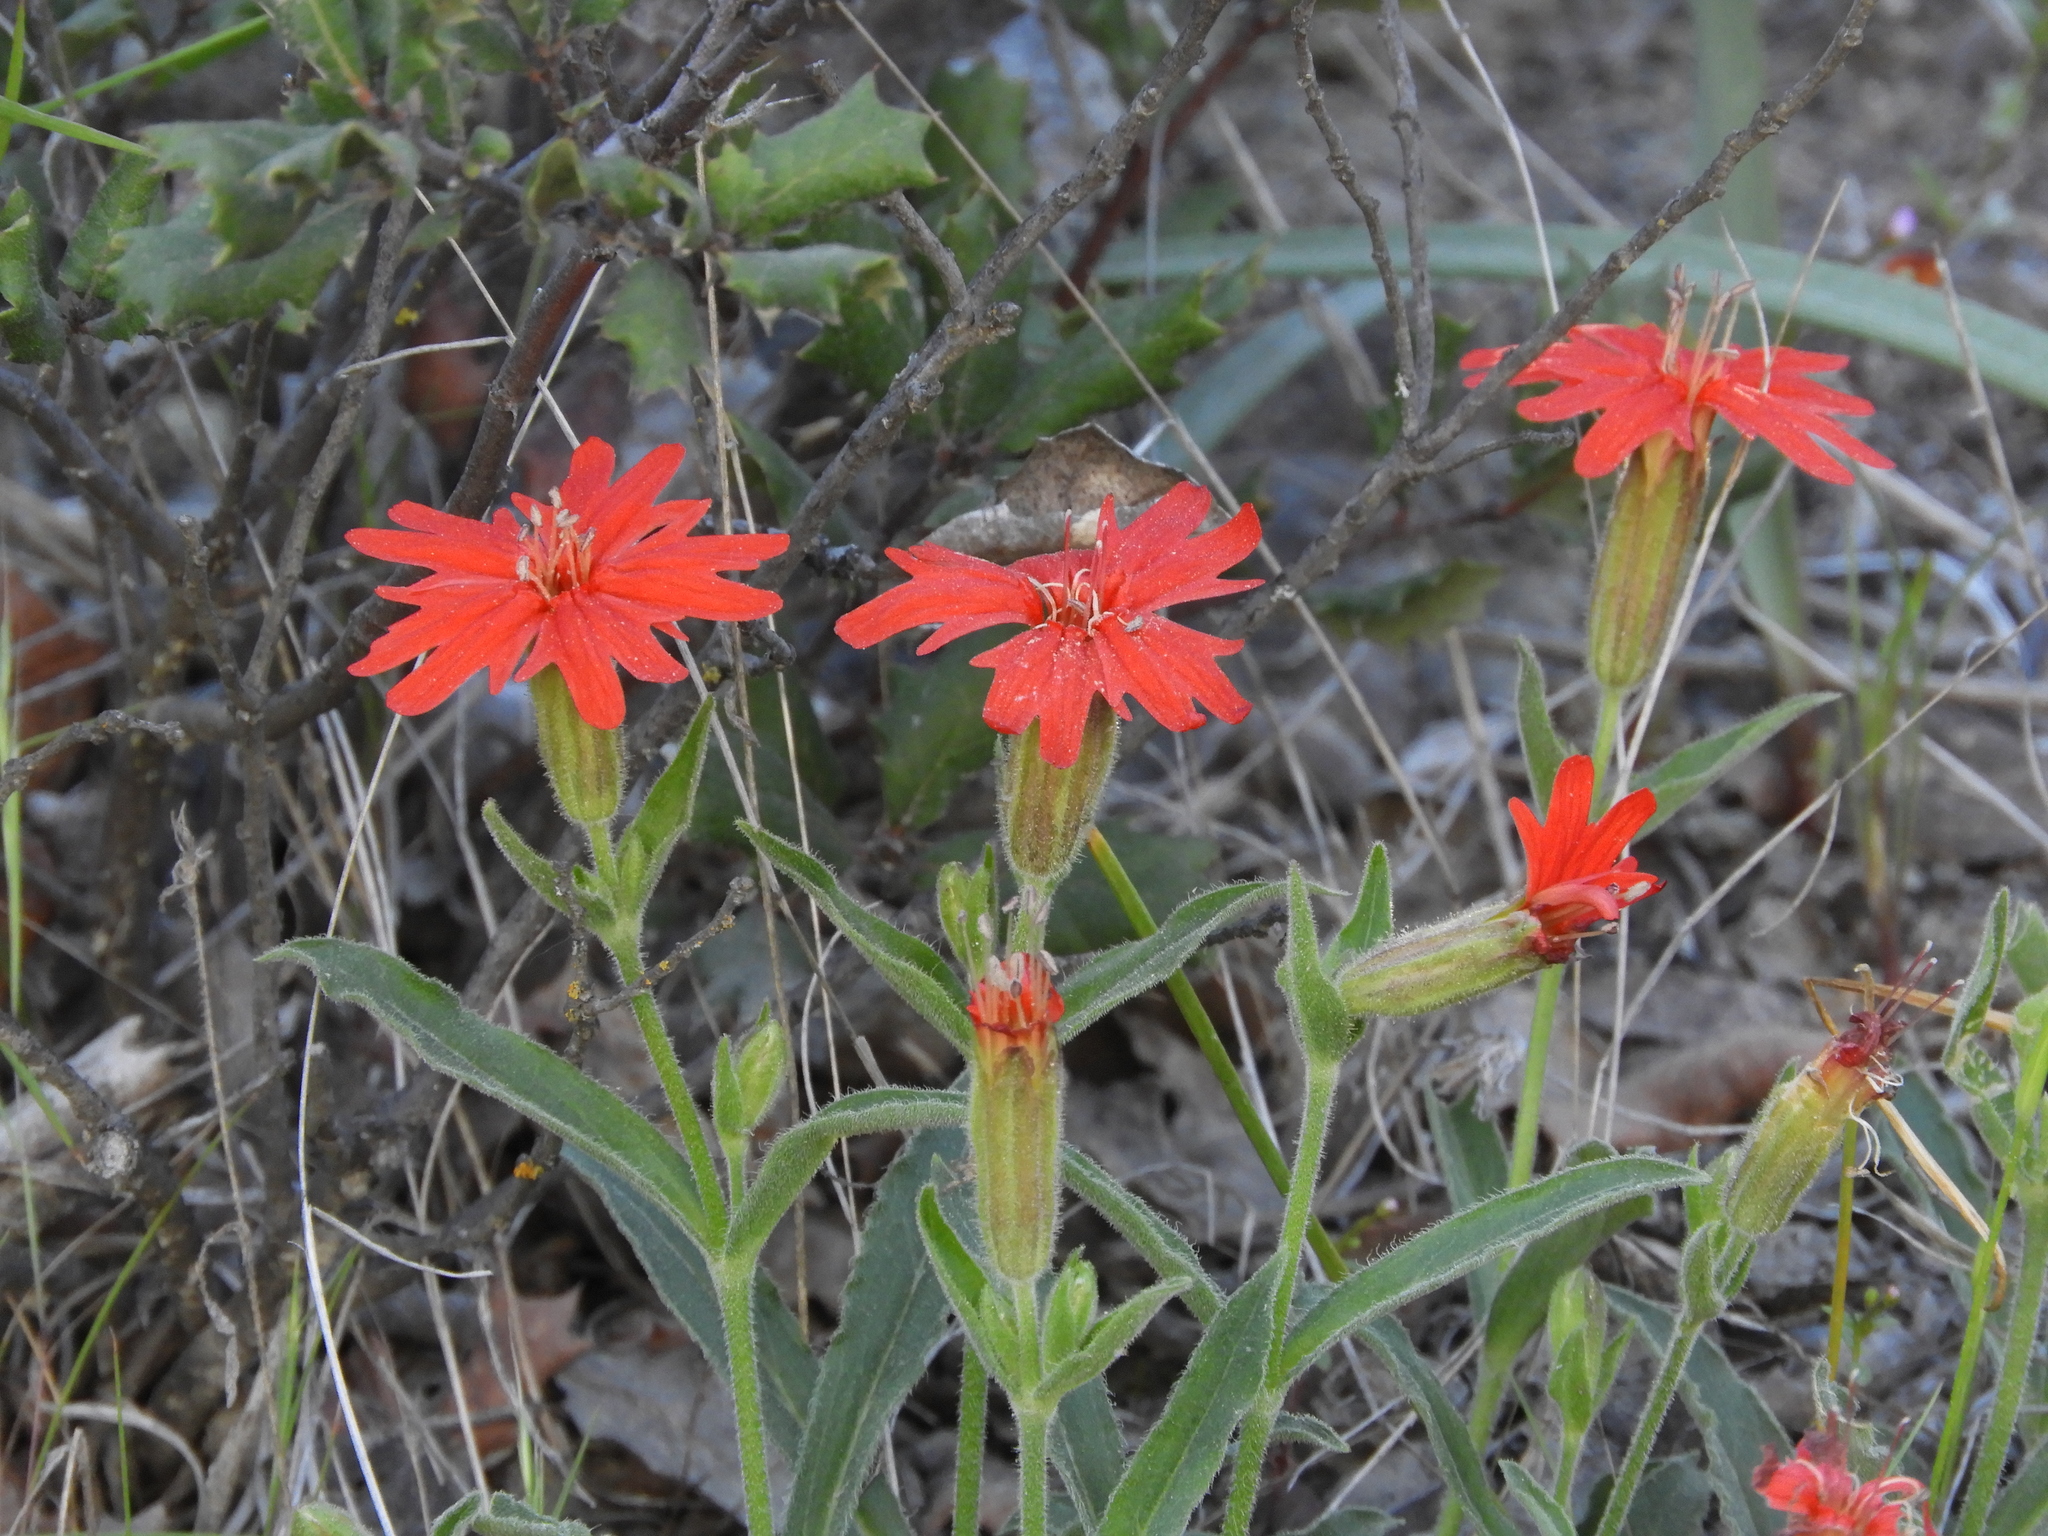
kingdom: Plantae
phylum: Tracheophyta
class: Magnoliopsida
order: Caryophyllales
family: Caryophyllaceae
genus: Silene
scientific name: Silene laciniata
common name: Indian-pink
